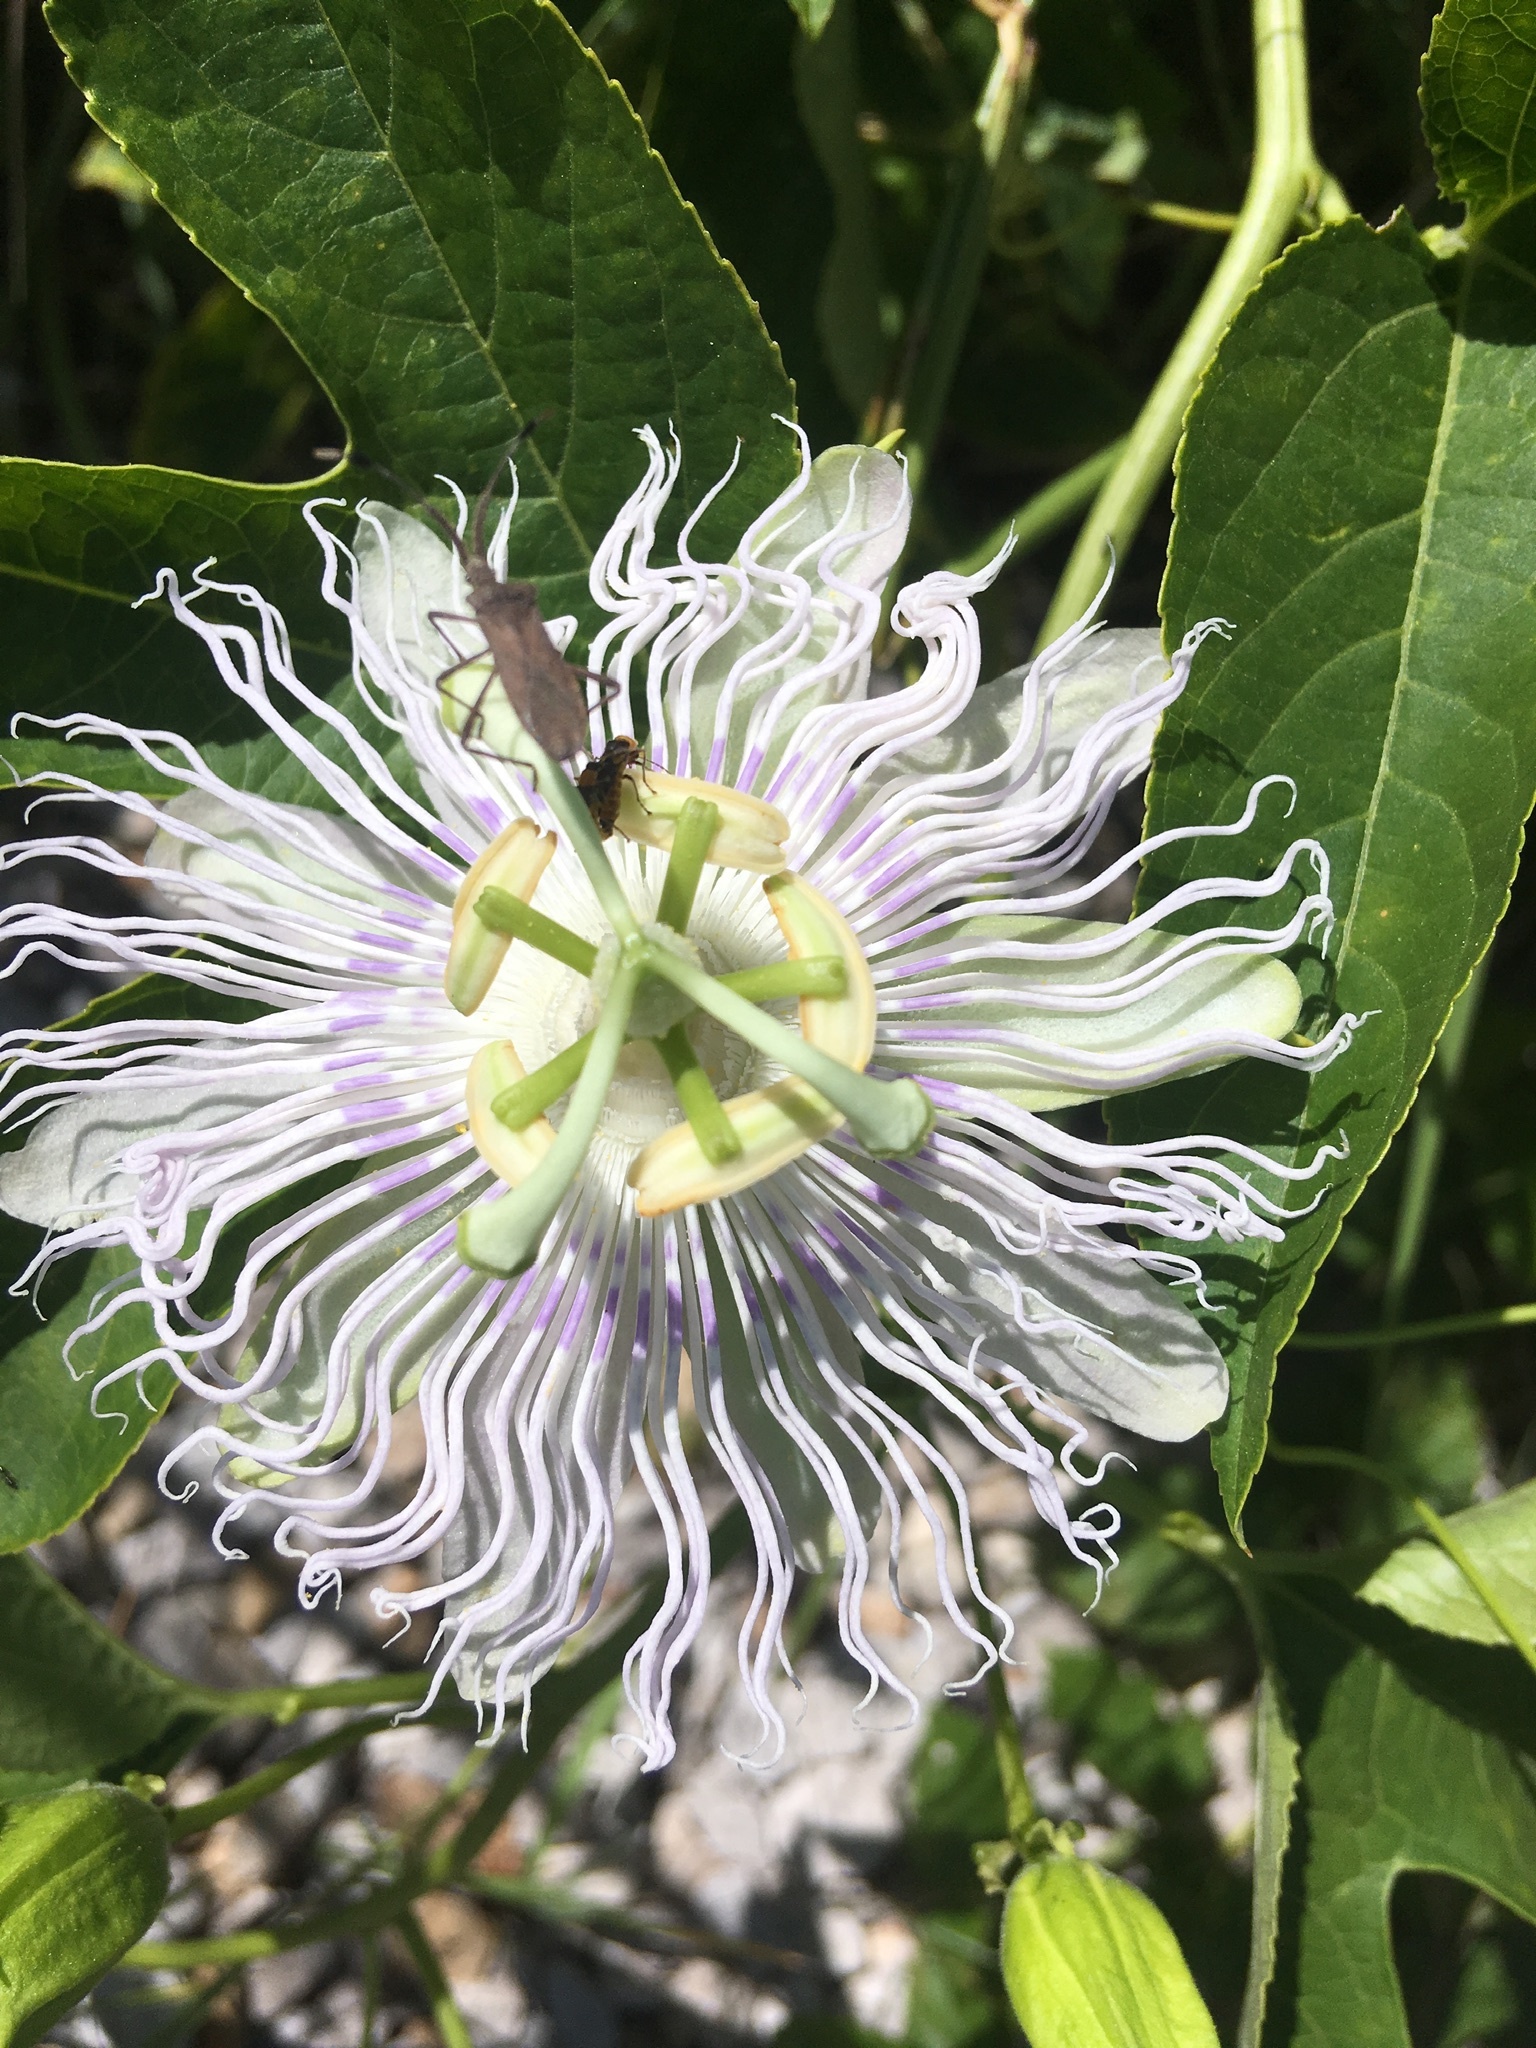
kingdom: Plantae
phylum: Tracheophyta
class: Magnoliopsida
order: Malpighiales
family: Passifloraceae
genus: Passiflora
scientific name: Passiflora incarnata
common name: Apricot-vine
